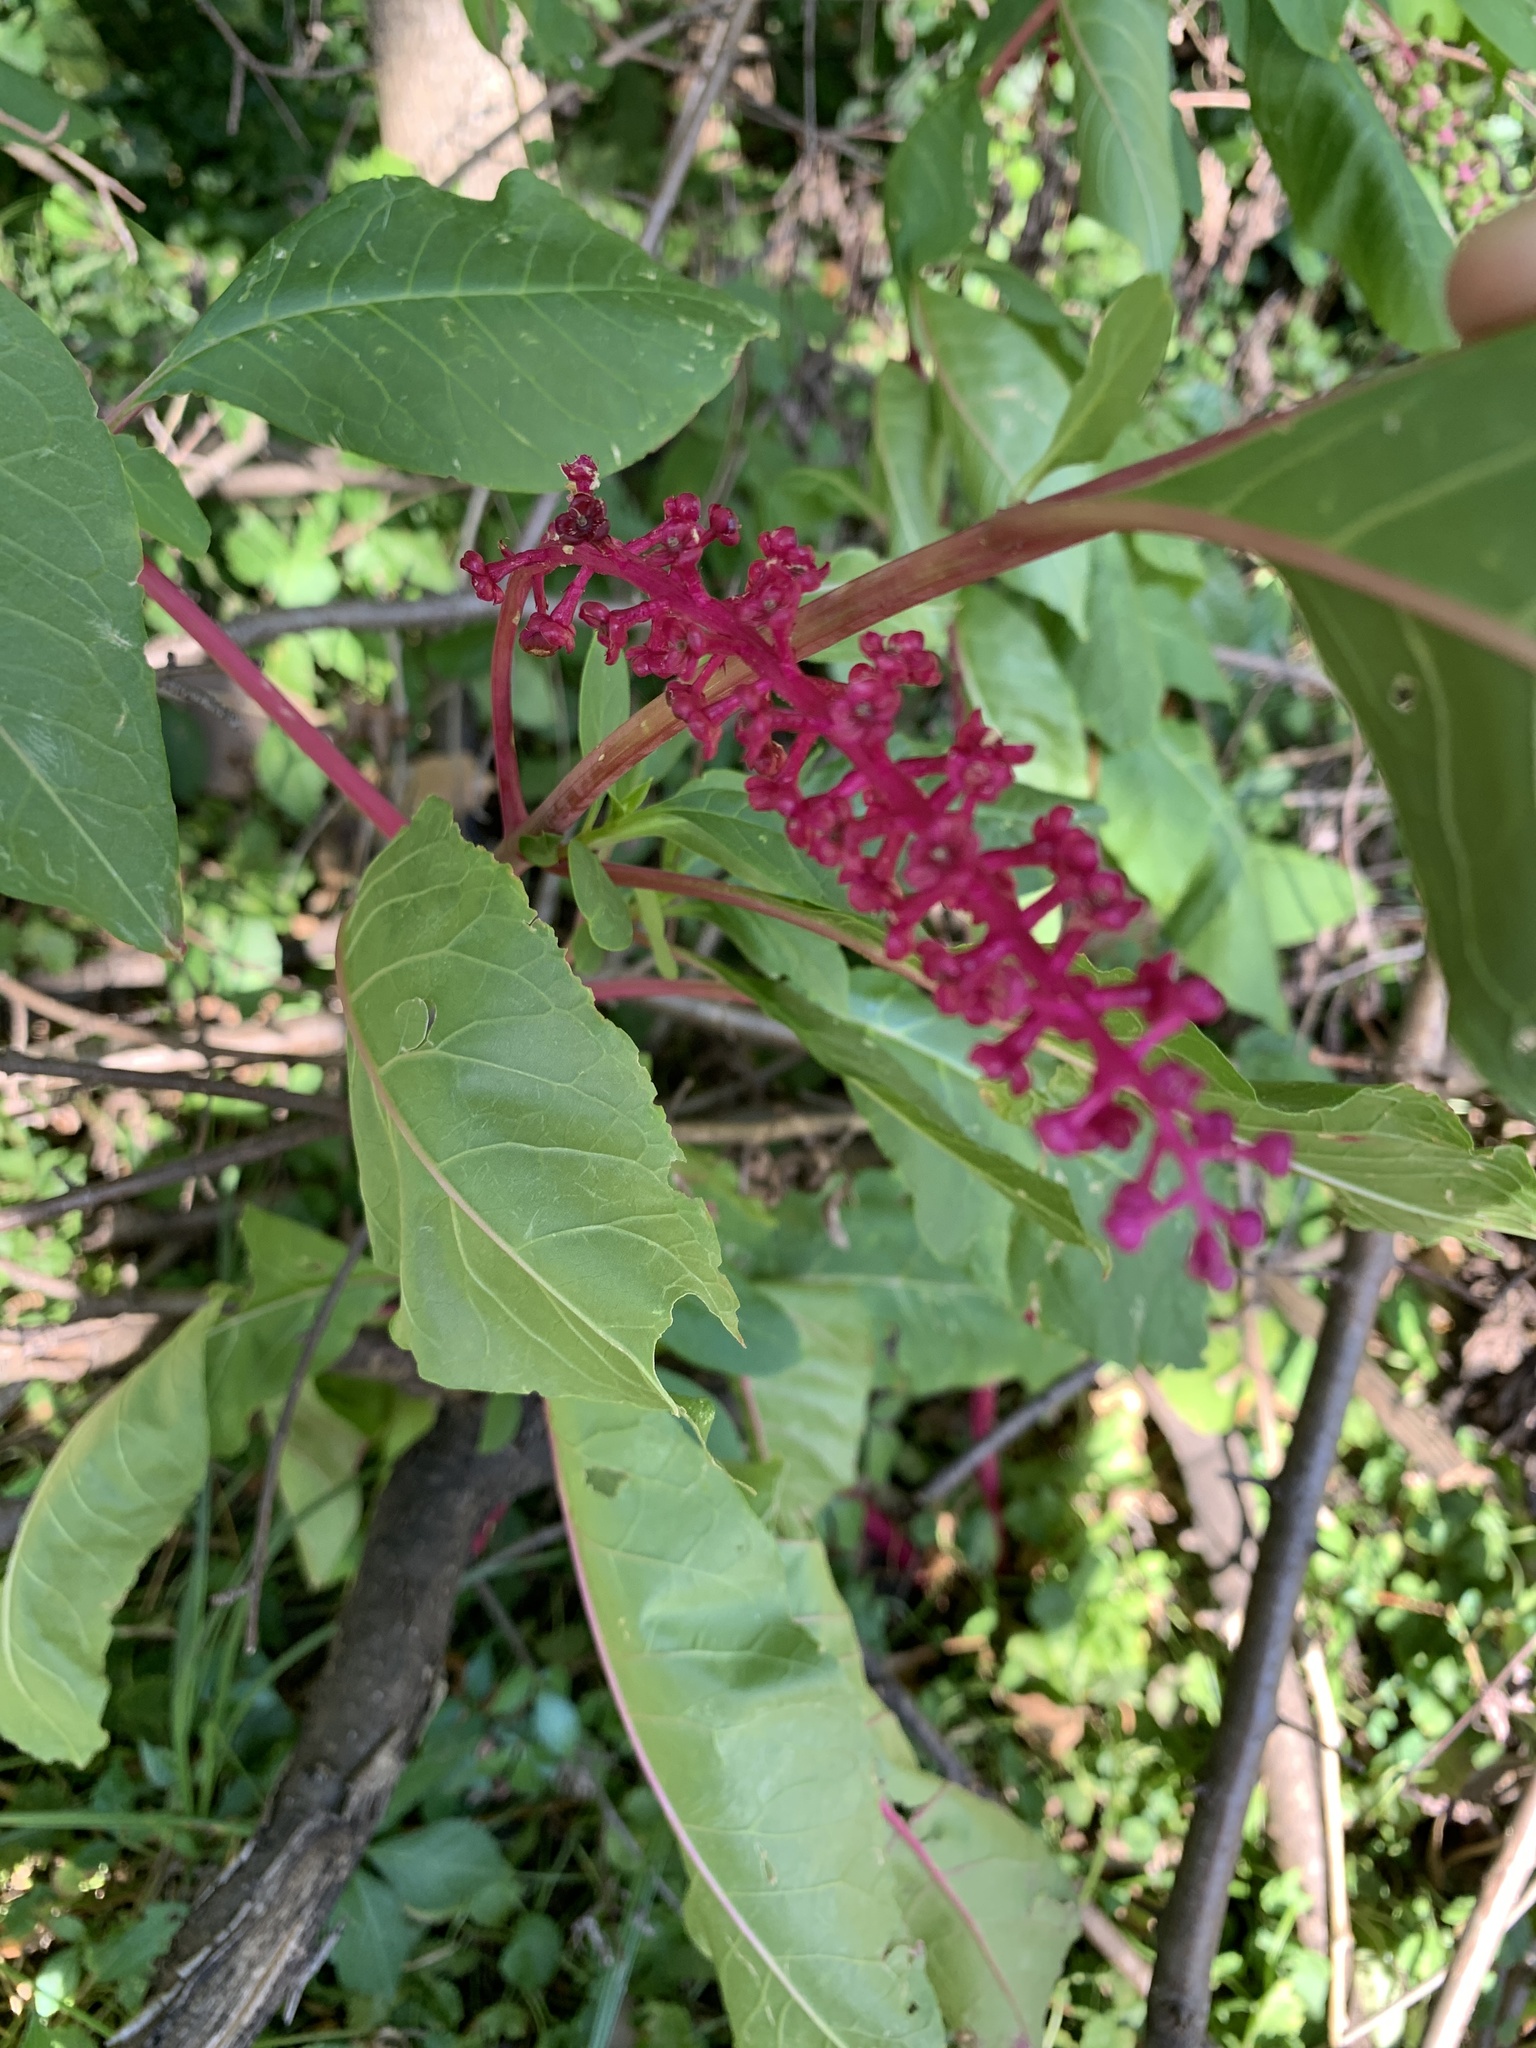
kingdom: Plantae
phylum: Tracheophyta
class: Magnoliopsida
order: Caryophyllales
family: Phytolaccaceae
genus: Phytolacca
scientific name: Phytolacca americana
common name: American pokeweed
